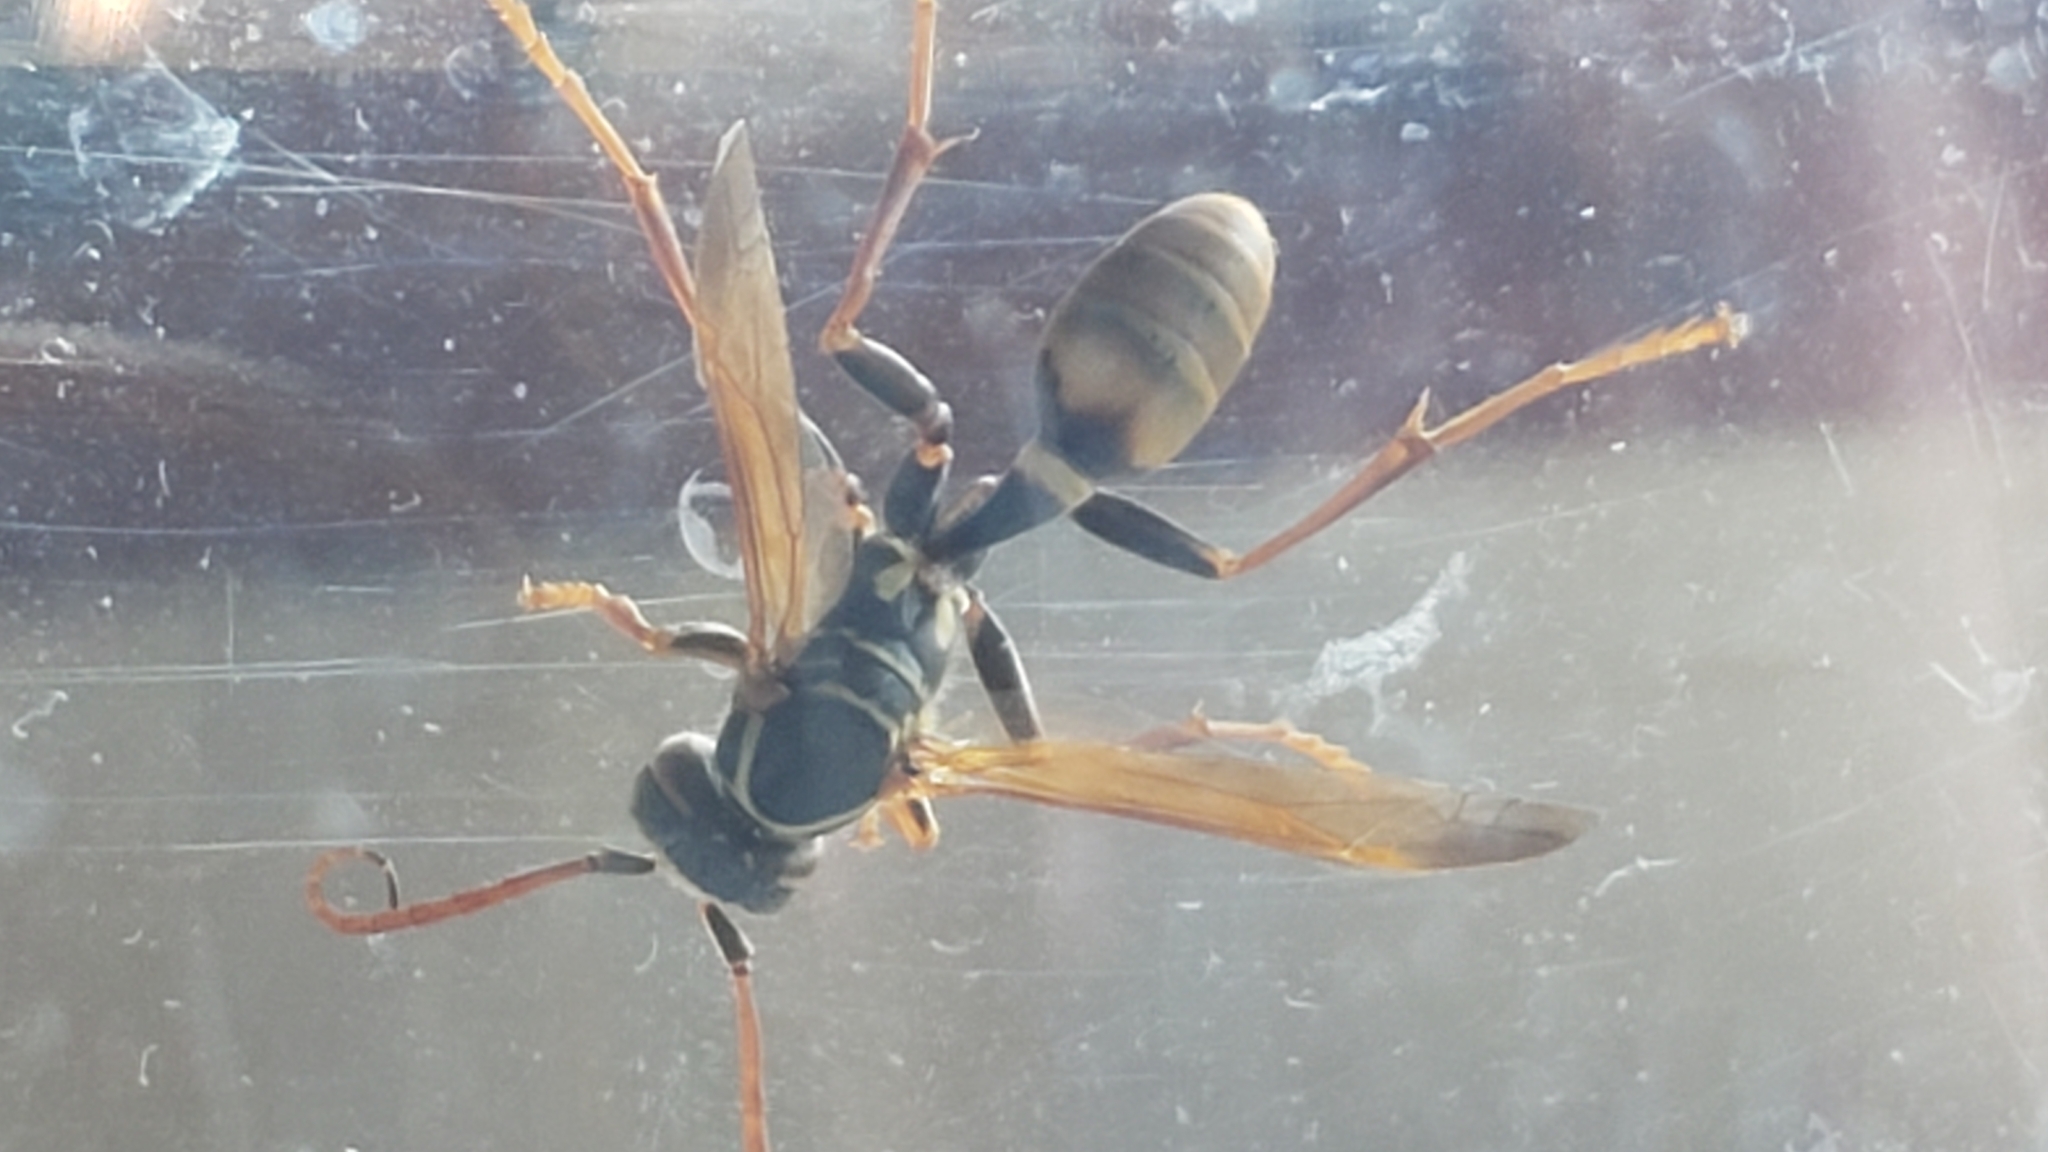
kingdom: Animalia
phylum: Arthropoda
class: Insecta
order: Hymenoptera
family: Vespidae
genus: Mischocyttarus
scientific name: Mischocyttarus flavitarsis
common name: Wasp
